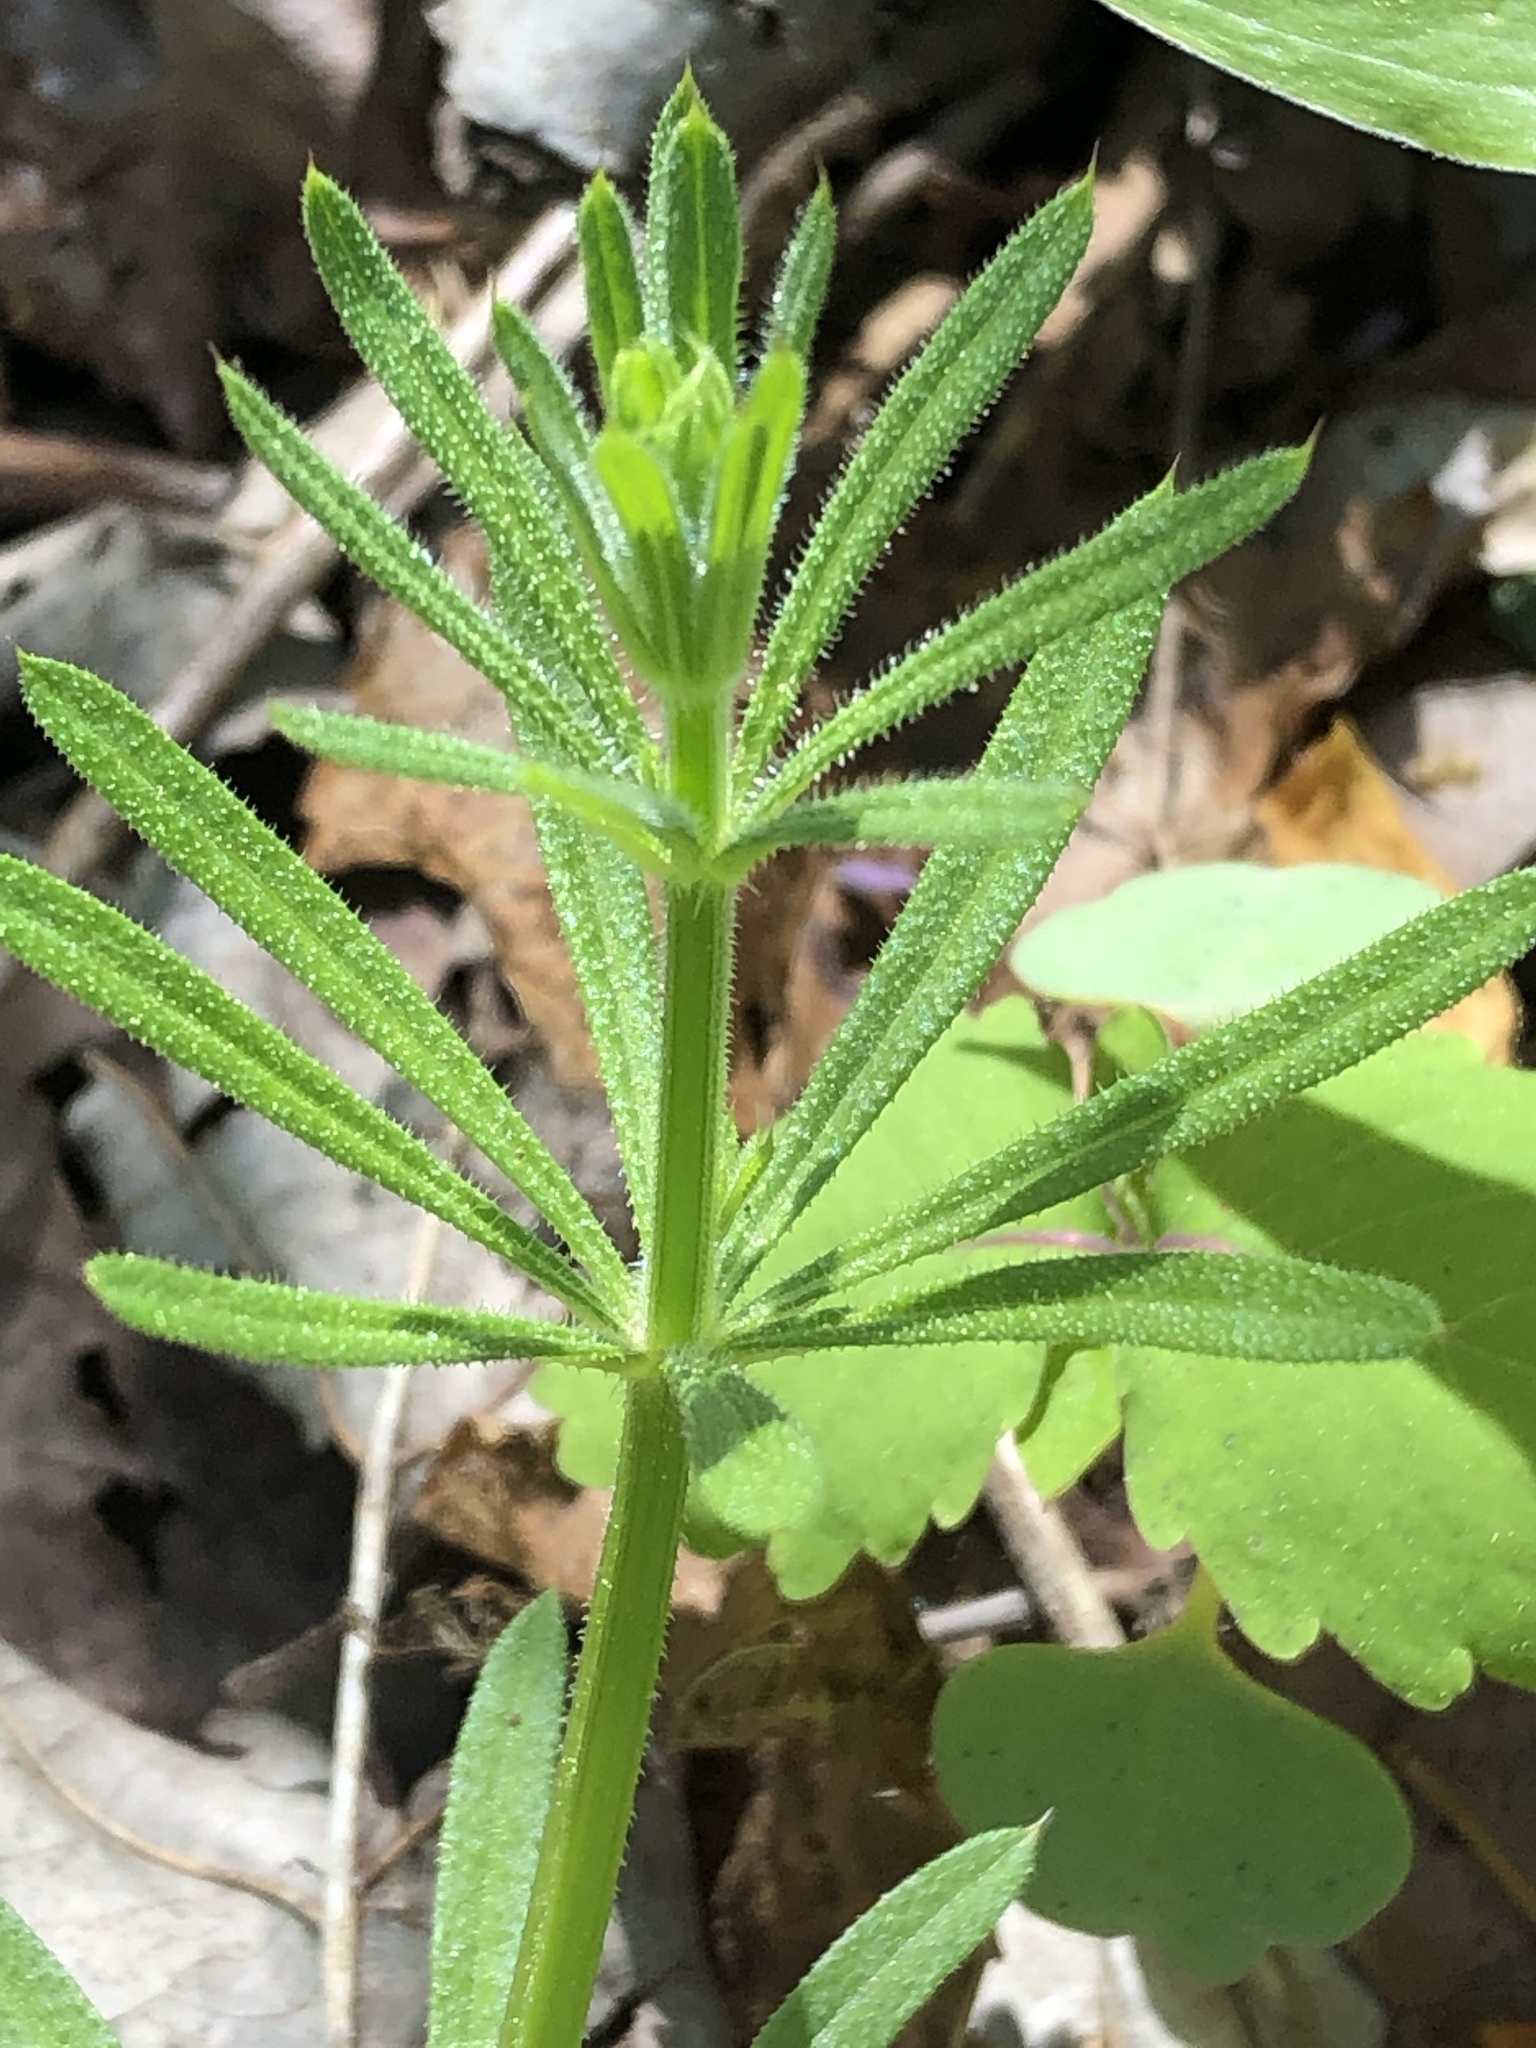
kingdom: Plantae
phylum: Tracheophyta
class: Magnoliopsida
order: Gentianales
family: Rubiaceae
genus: Galium
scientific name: Galium aparine
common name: Cleavers
